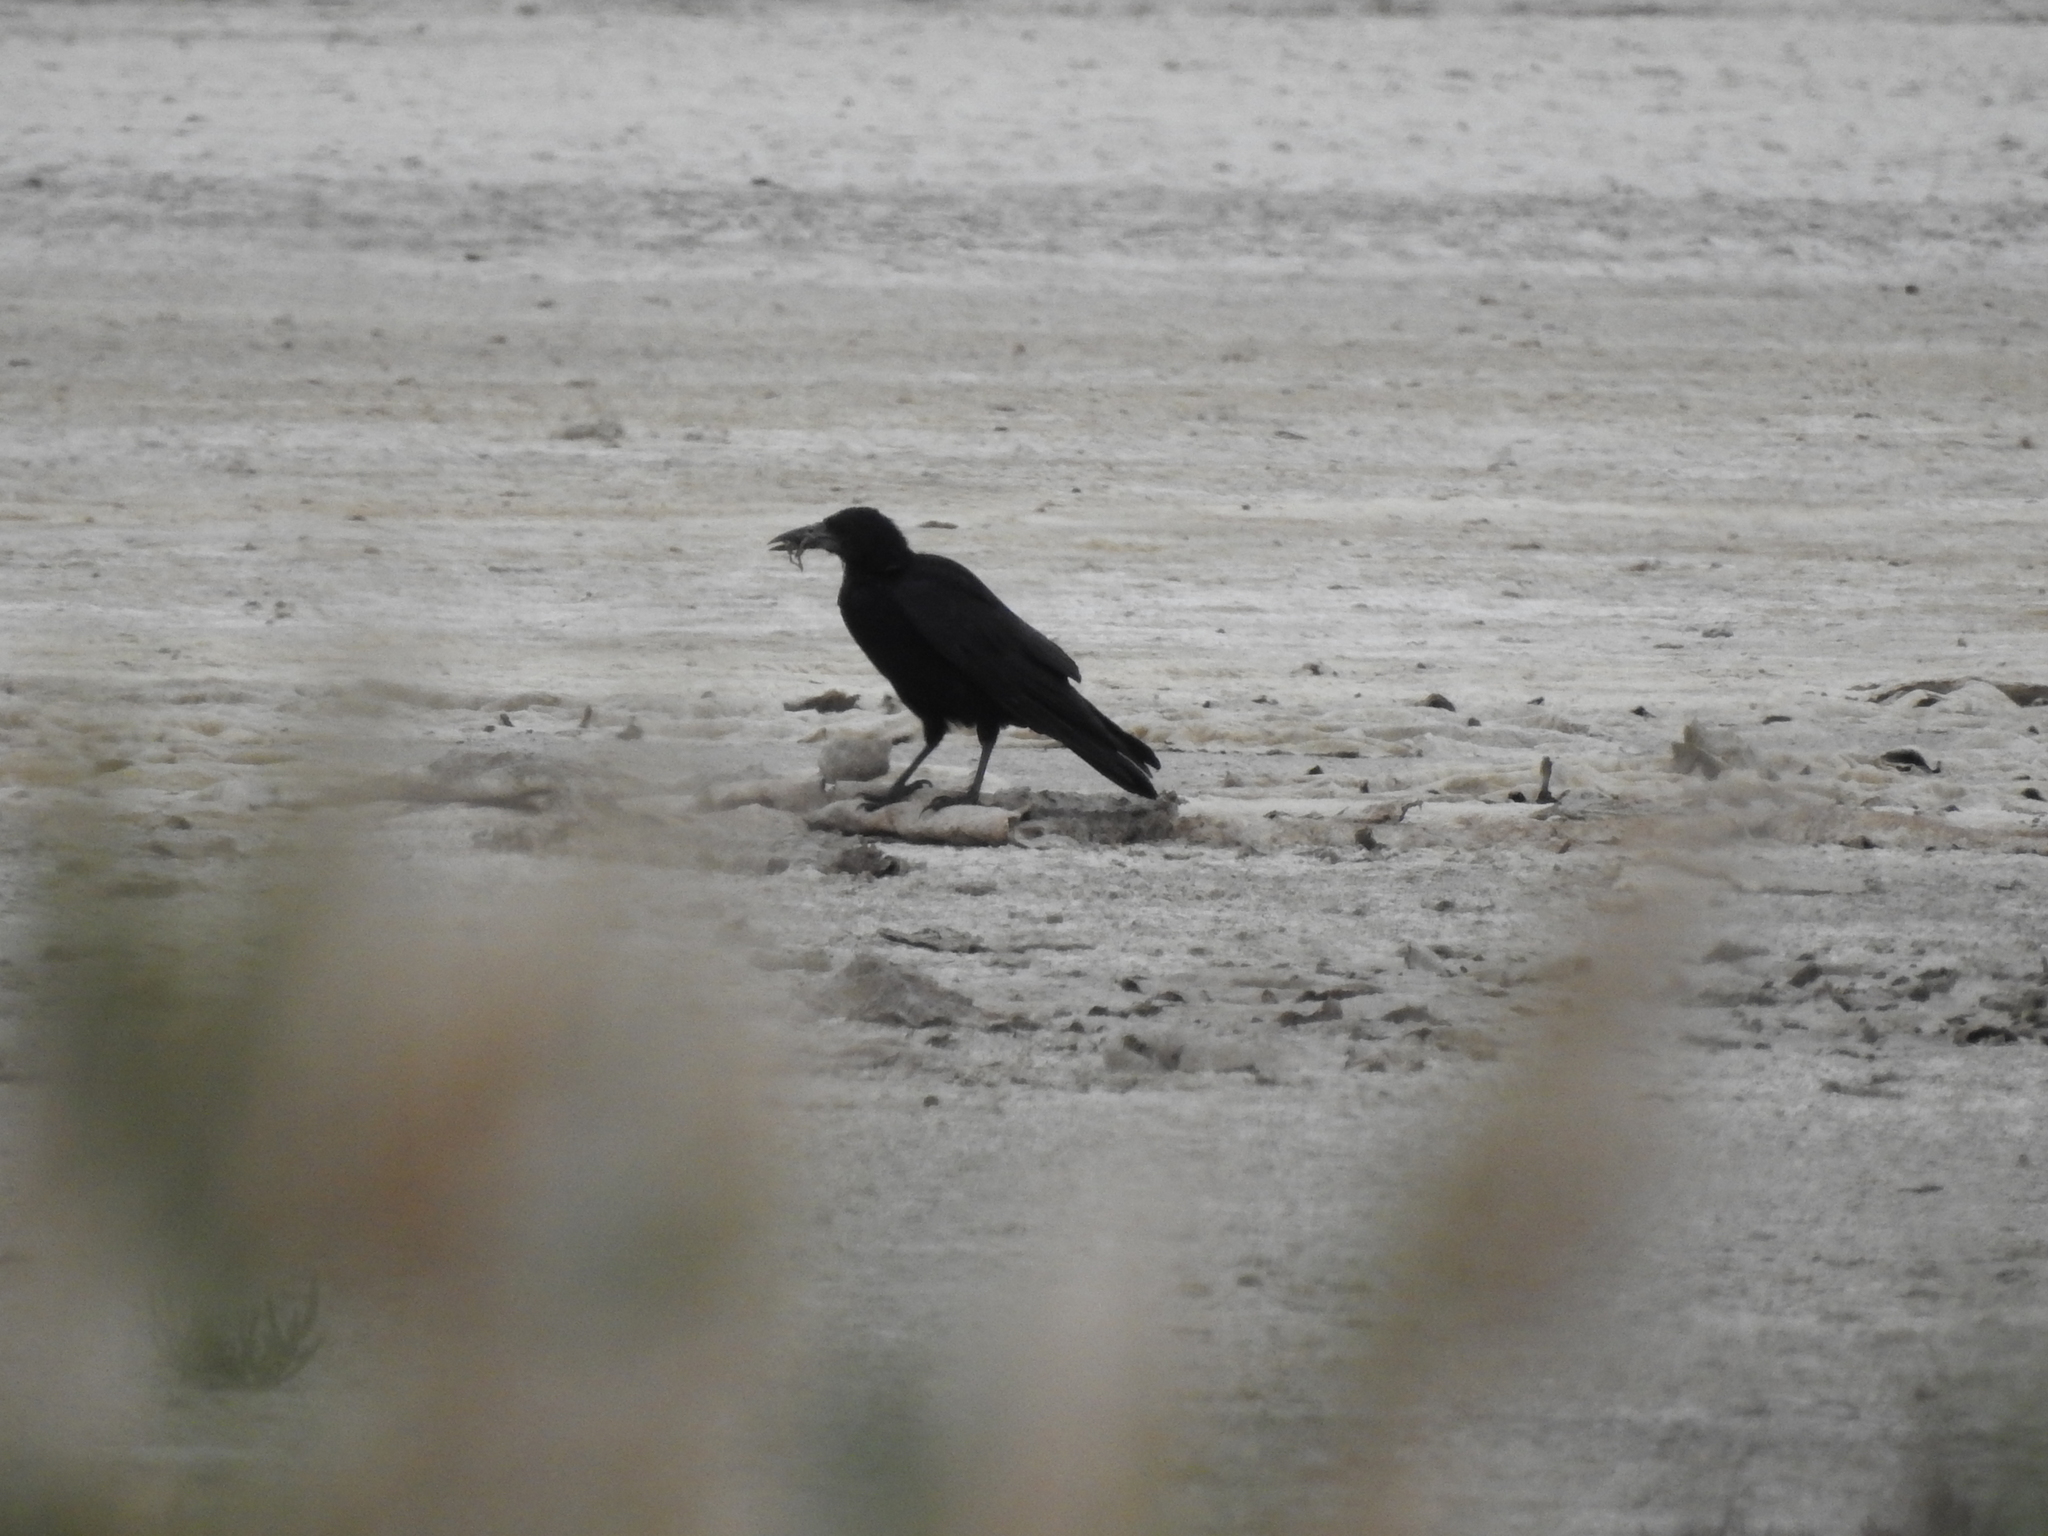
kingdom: Animalia
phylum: Chordata
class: Aves
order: Passeriformes
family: Corvidae
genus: Corvus
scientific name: Corvus frugilegus
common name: Rook
